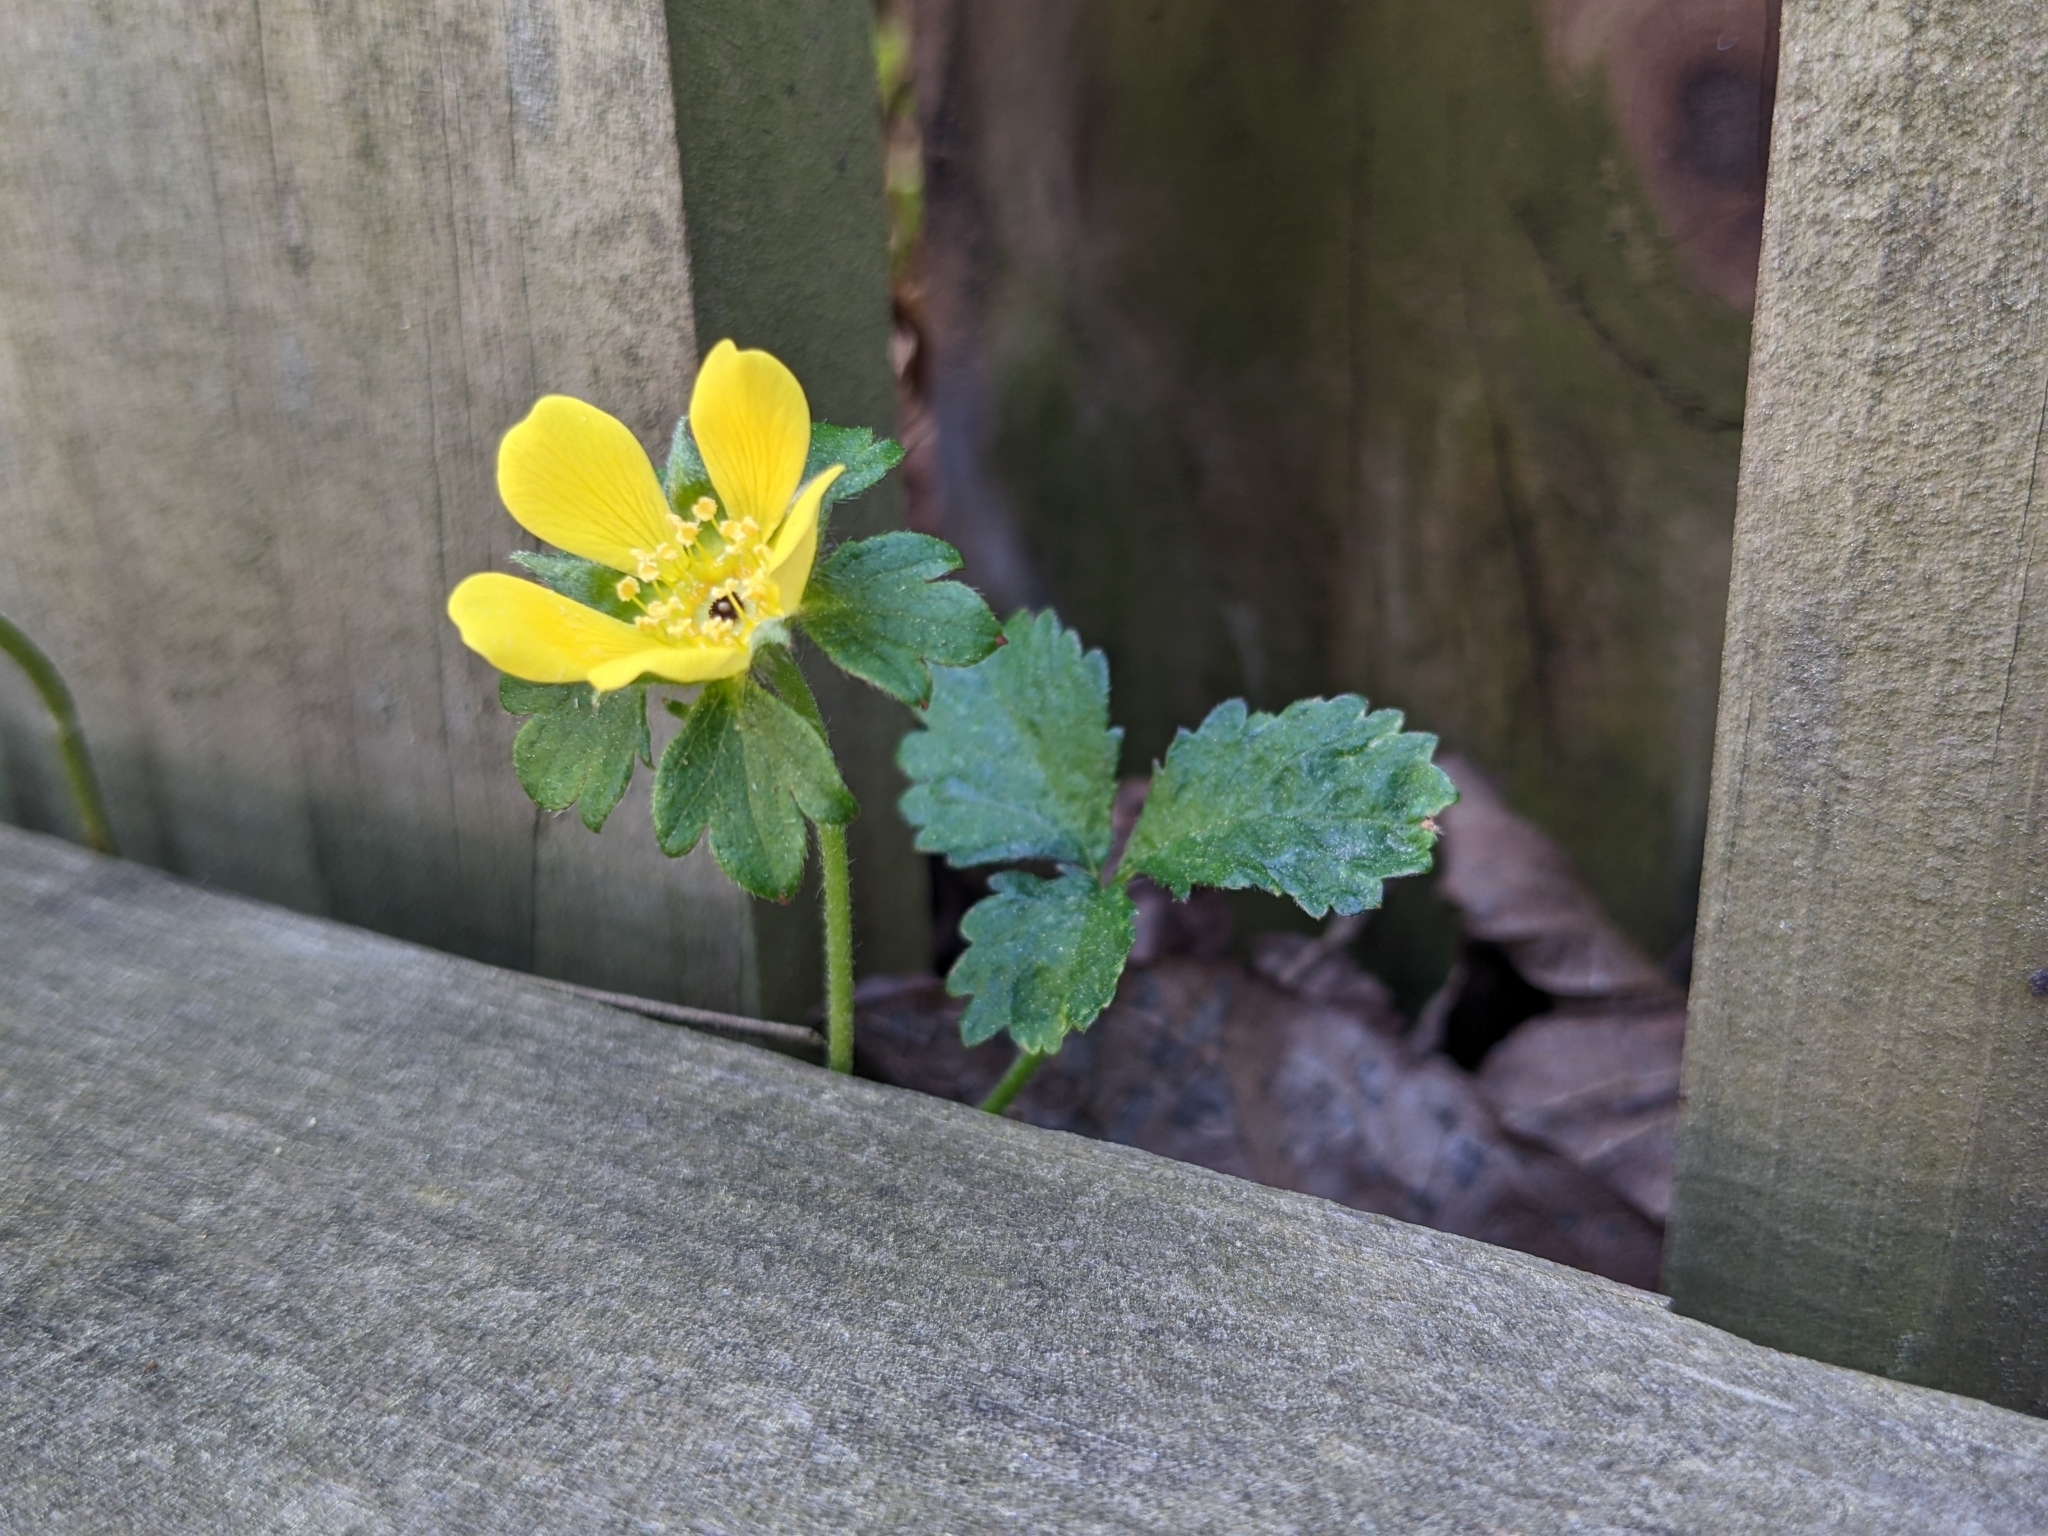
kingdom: Plantae
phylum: Tracheophyta
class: Magnoliopsida
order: Rosales
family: Rosaceae
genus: Potentilla
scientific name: Potentilla indica
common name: Yellow-flowered strawberry
